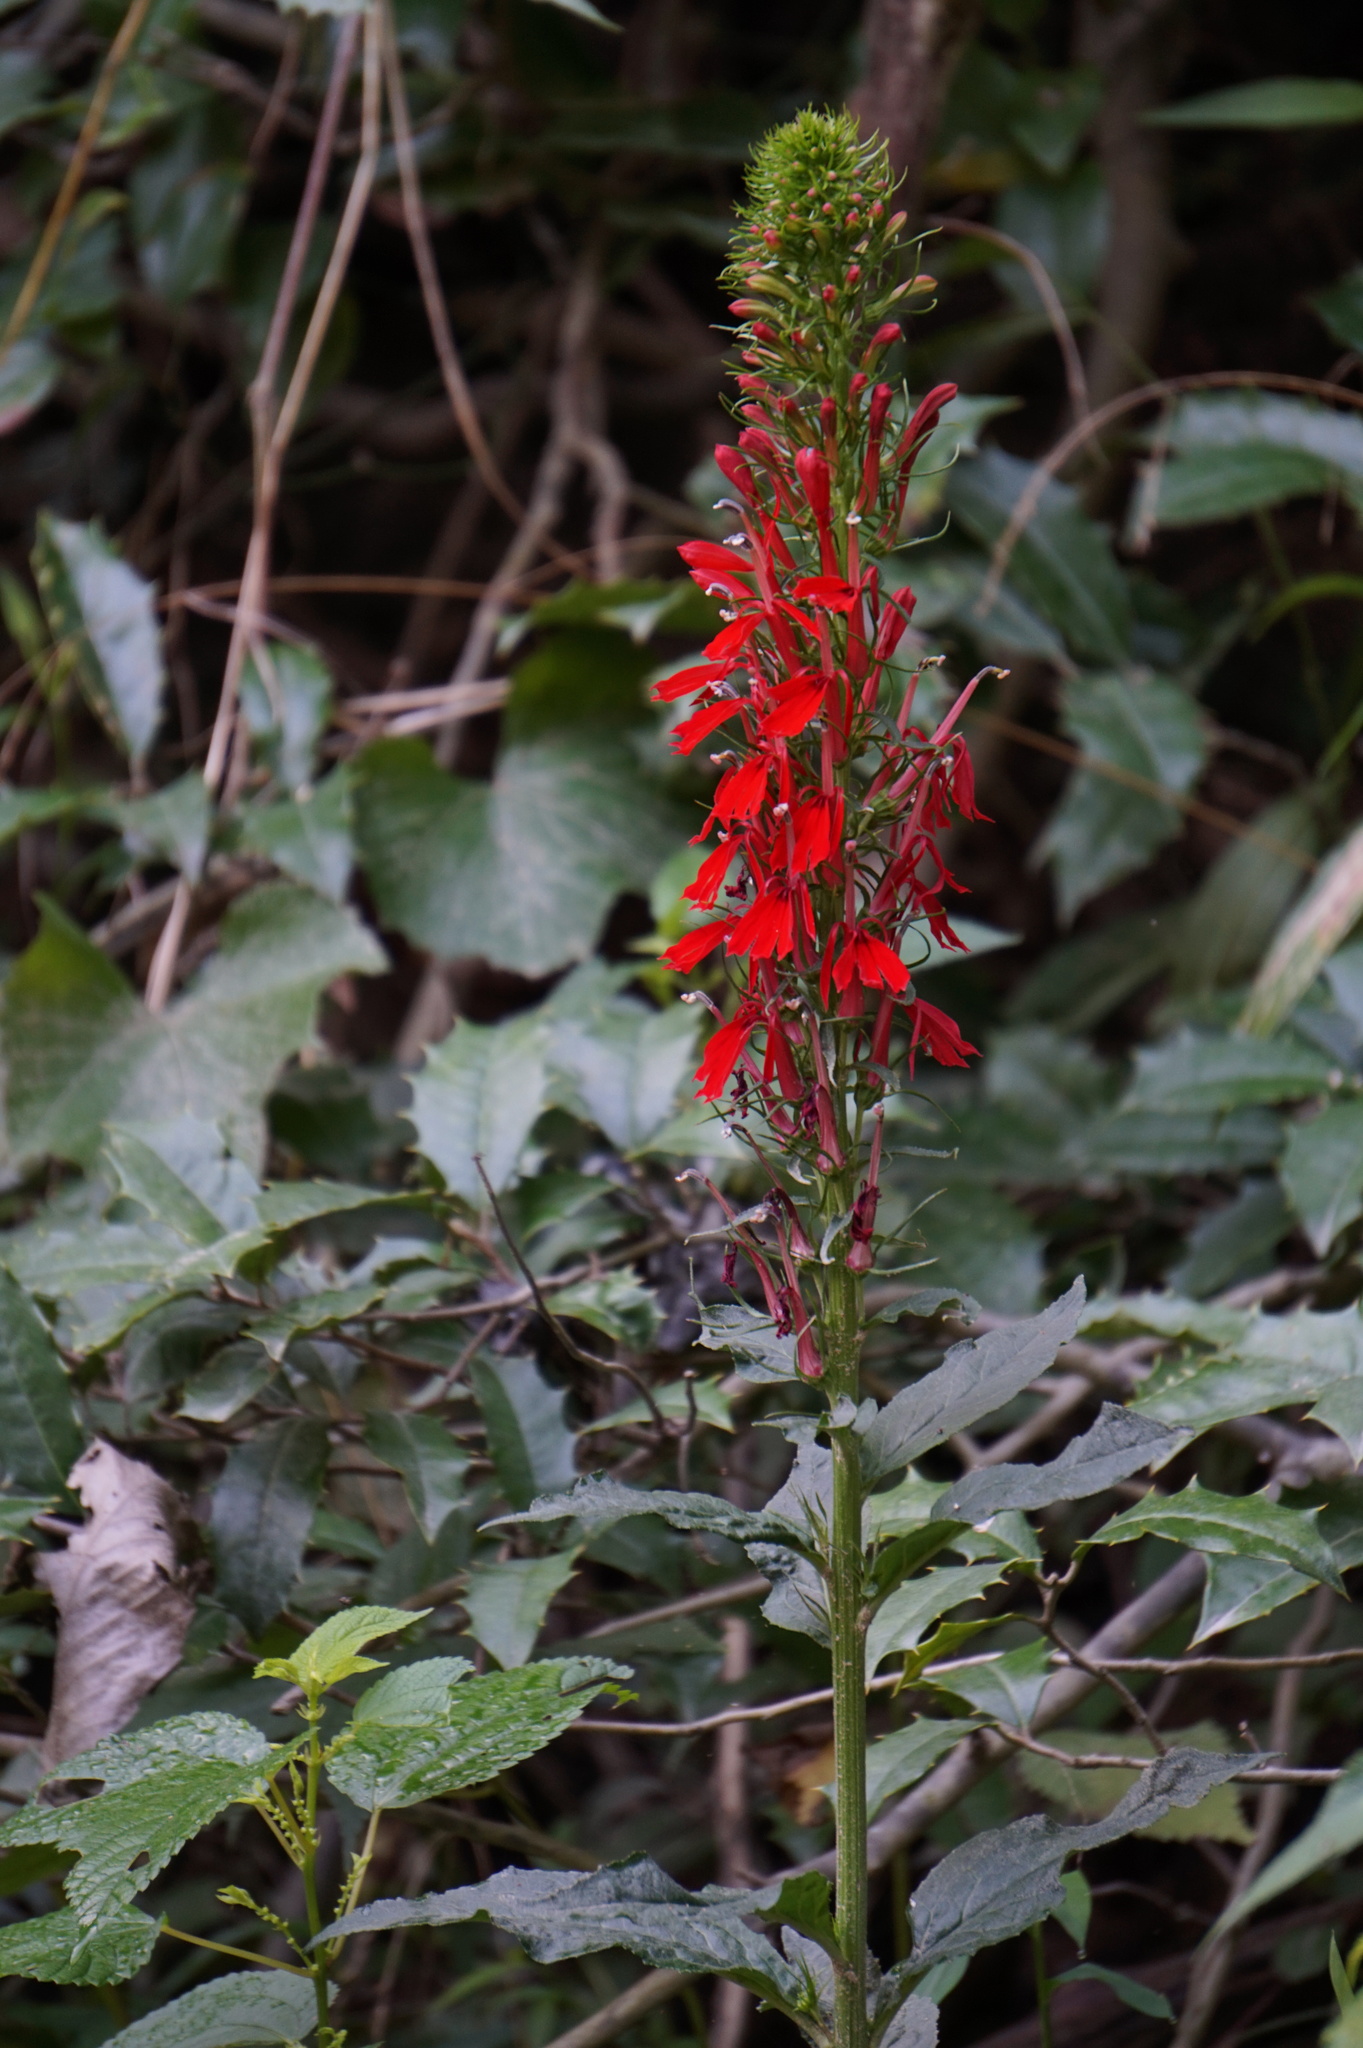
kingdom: Plantae
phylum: Tracheophyta
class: Magnoliopsida
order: Asterales
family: Campanulaceae
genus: Lobelia
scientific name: Lobelia cardinalis
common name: Cardinal flower
